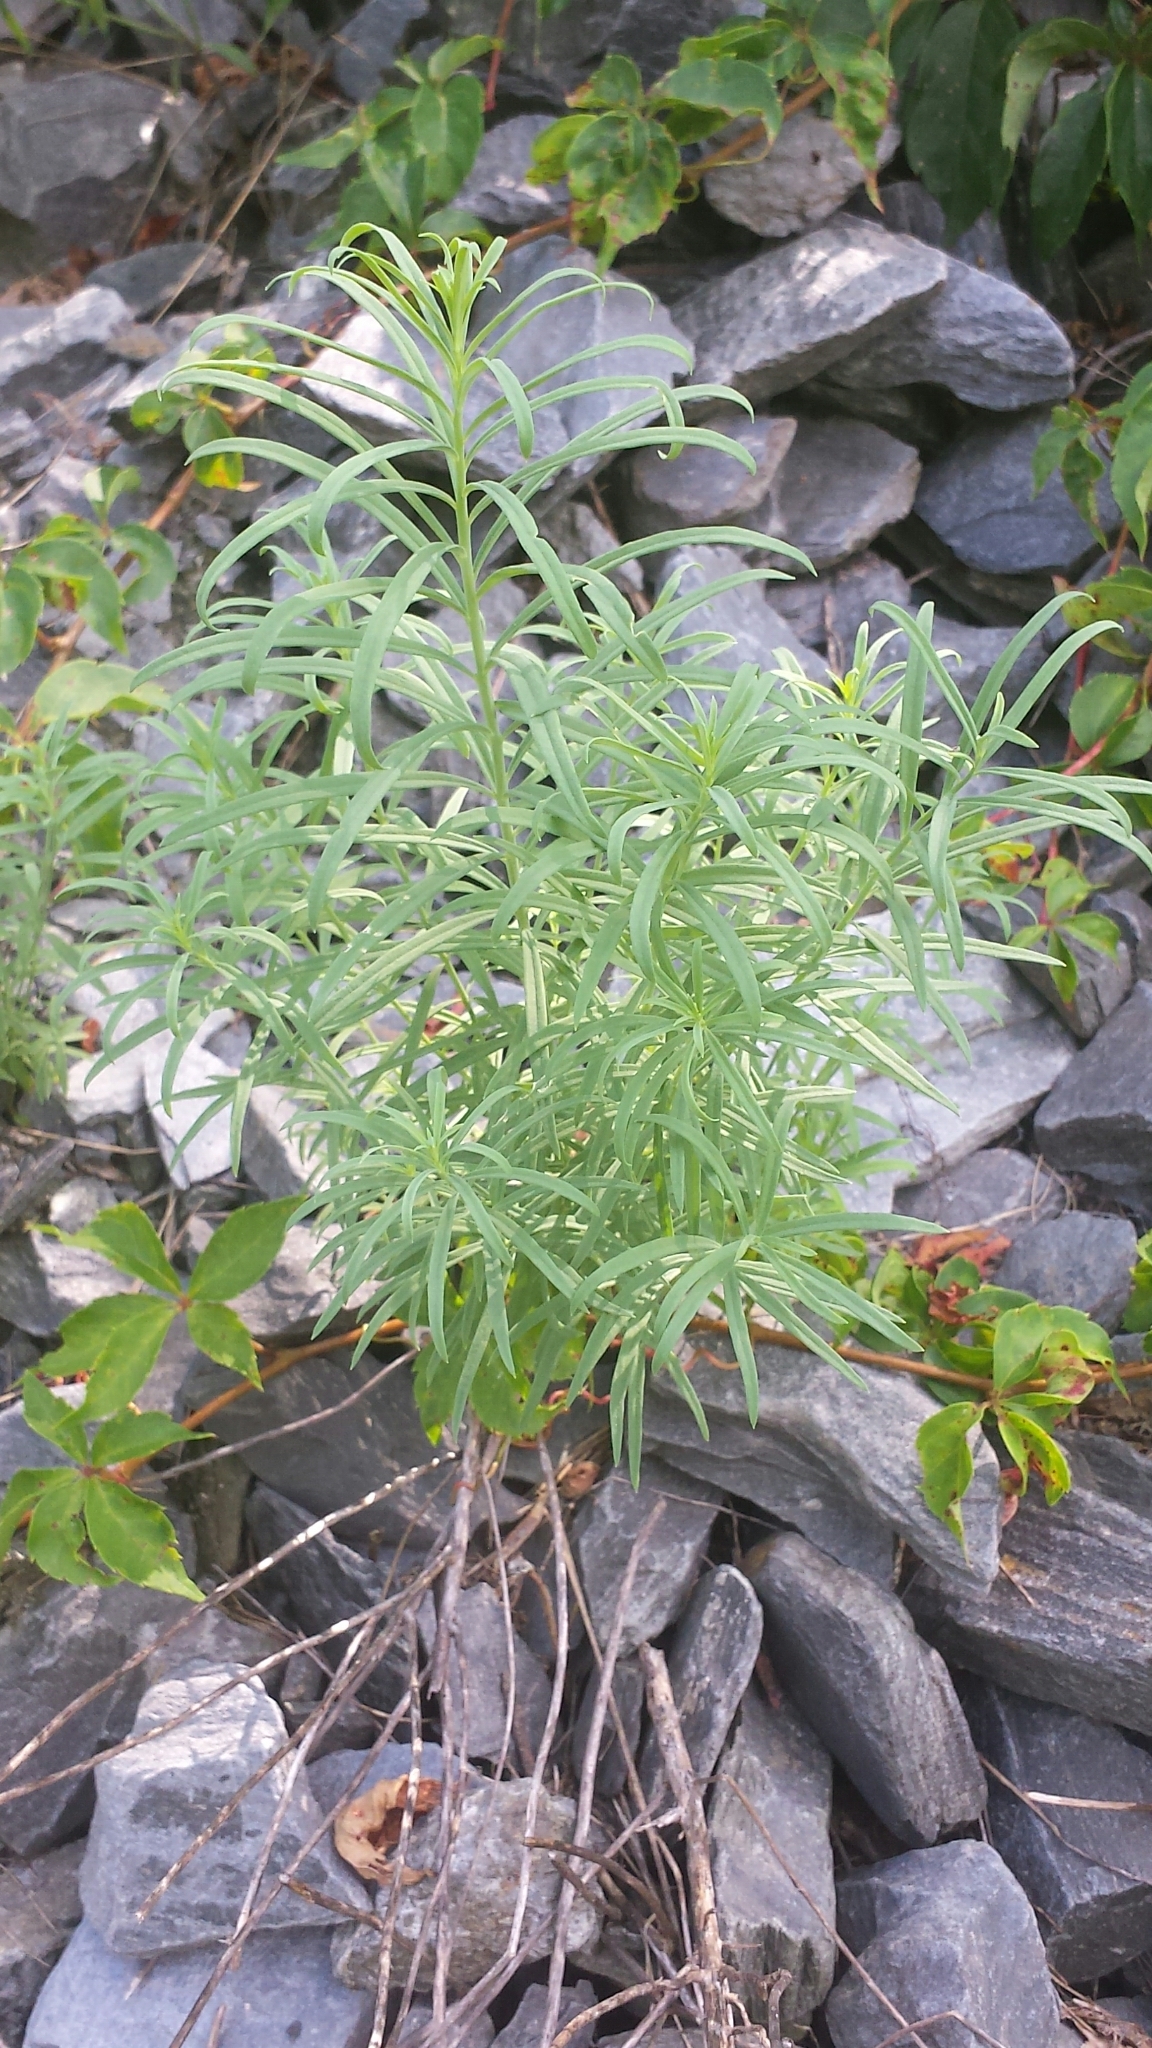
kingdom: Plantae
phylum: Tracheophyta
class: Magnoliopsida
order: Lamiales
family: Plantaginaceae
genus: Linaria
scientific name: Linaria vulgaris
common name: Butter and eggs
